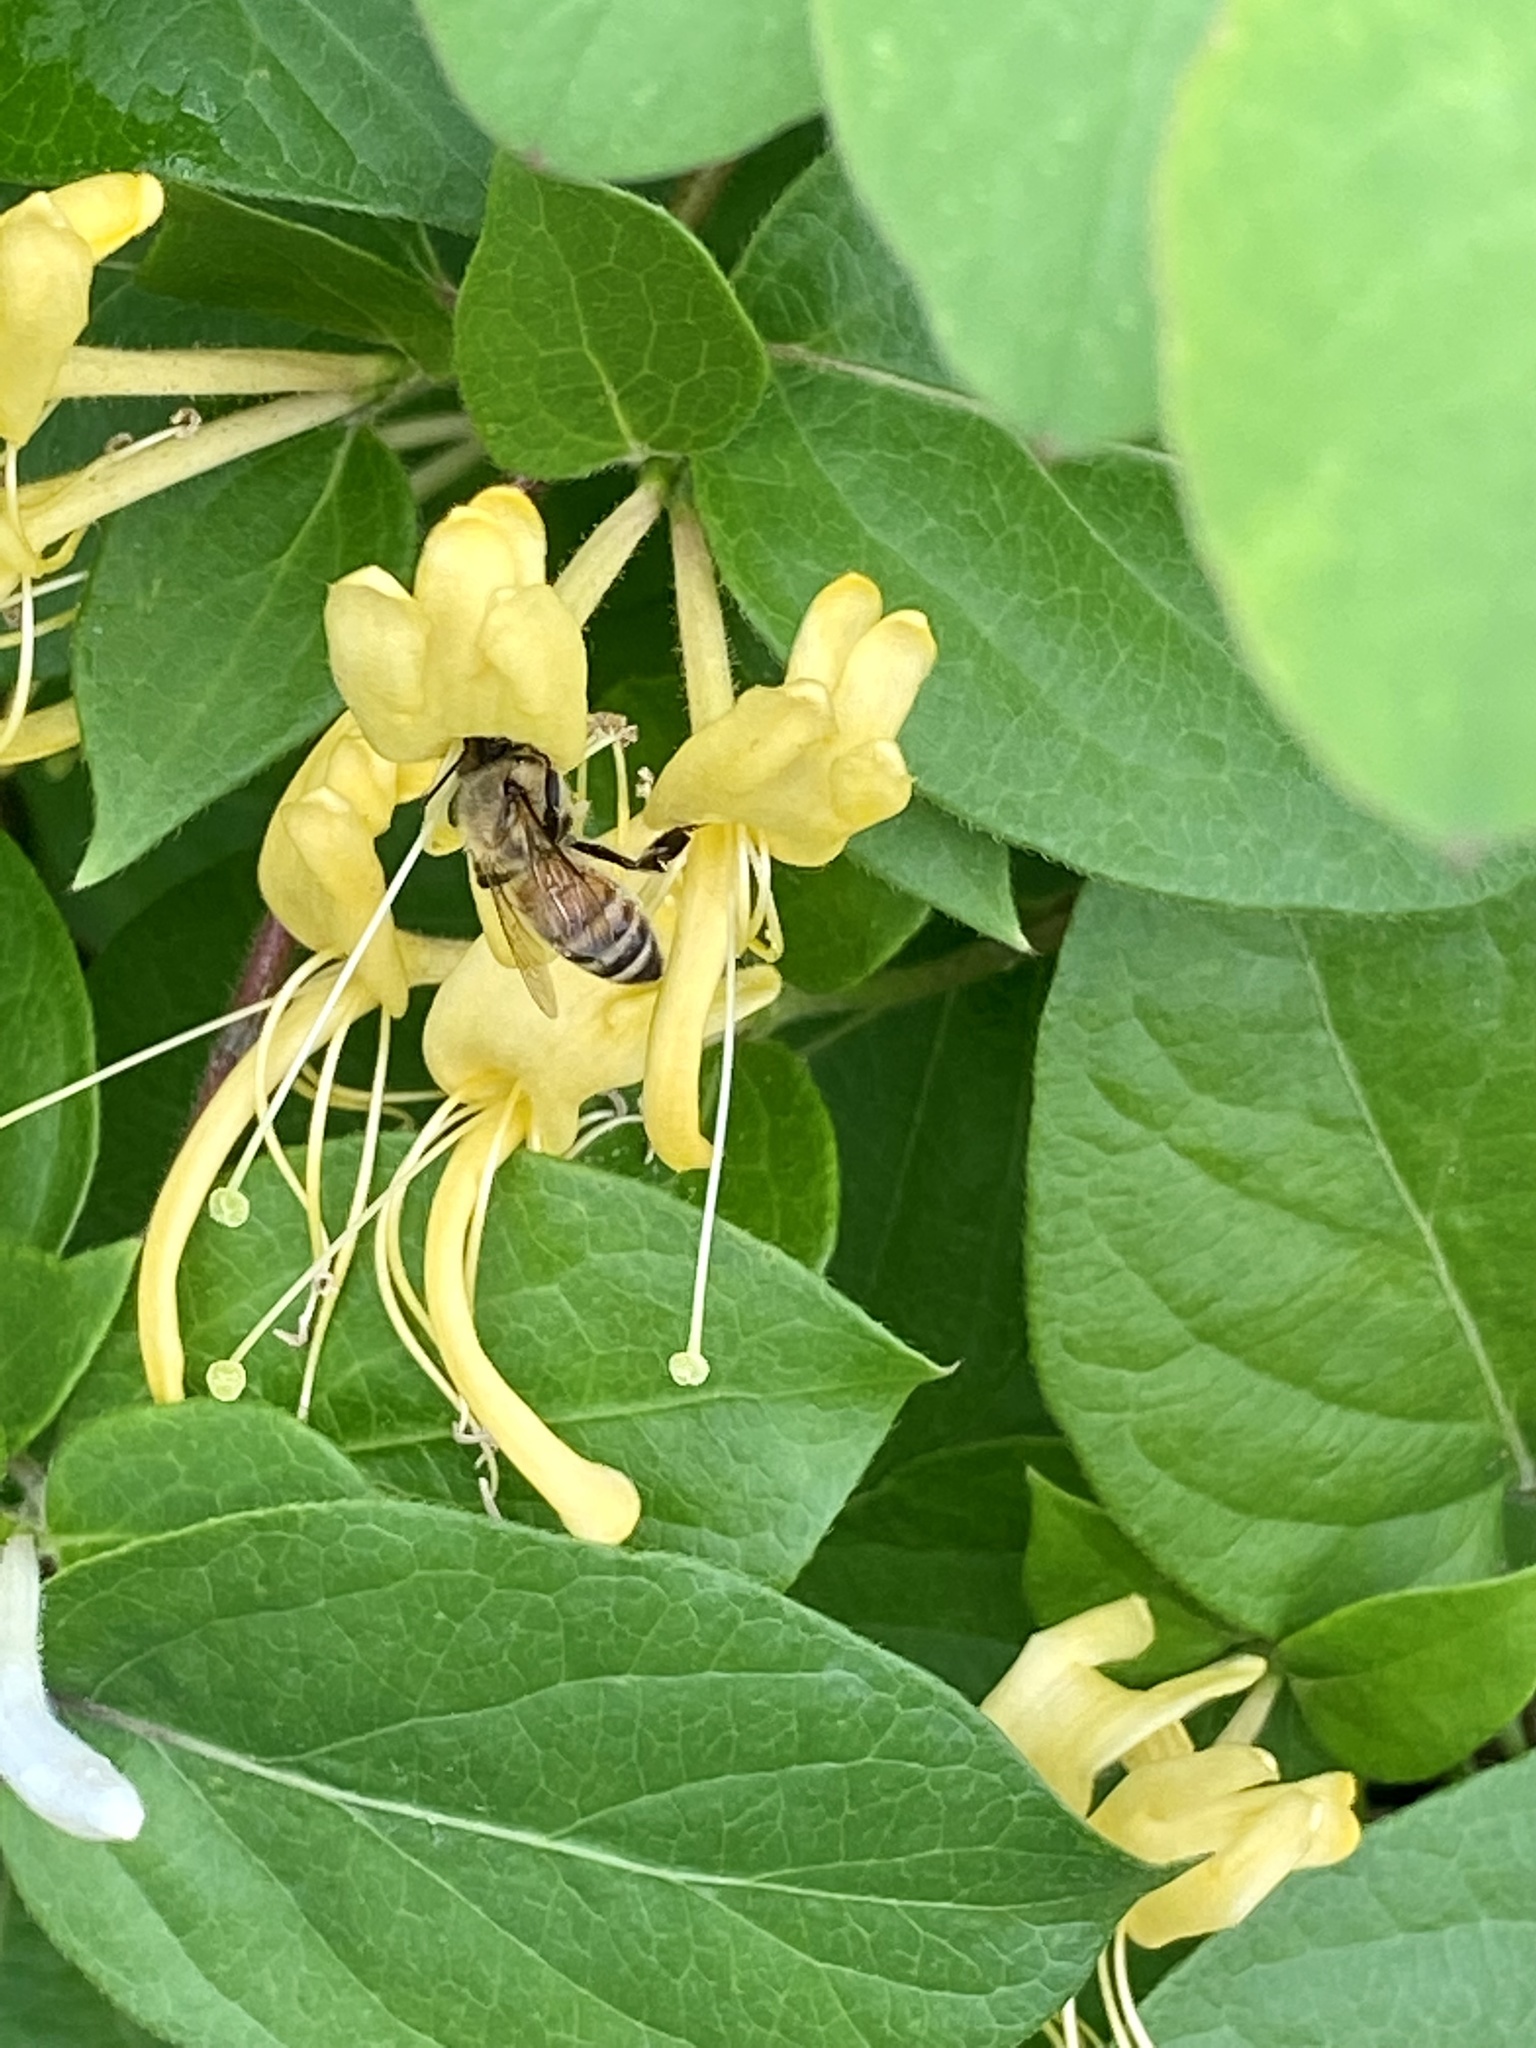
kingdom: Animalia
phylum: Arthropoda
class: Insecta
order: Hymenoptera
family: Apidae
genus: Apis
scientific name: Apis mellifera
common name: Honey bee
